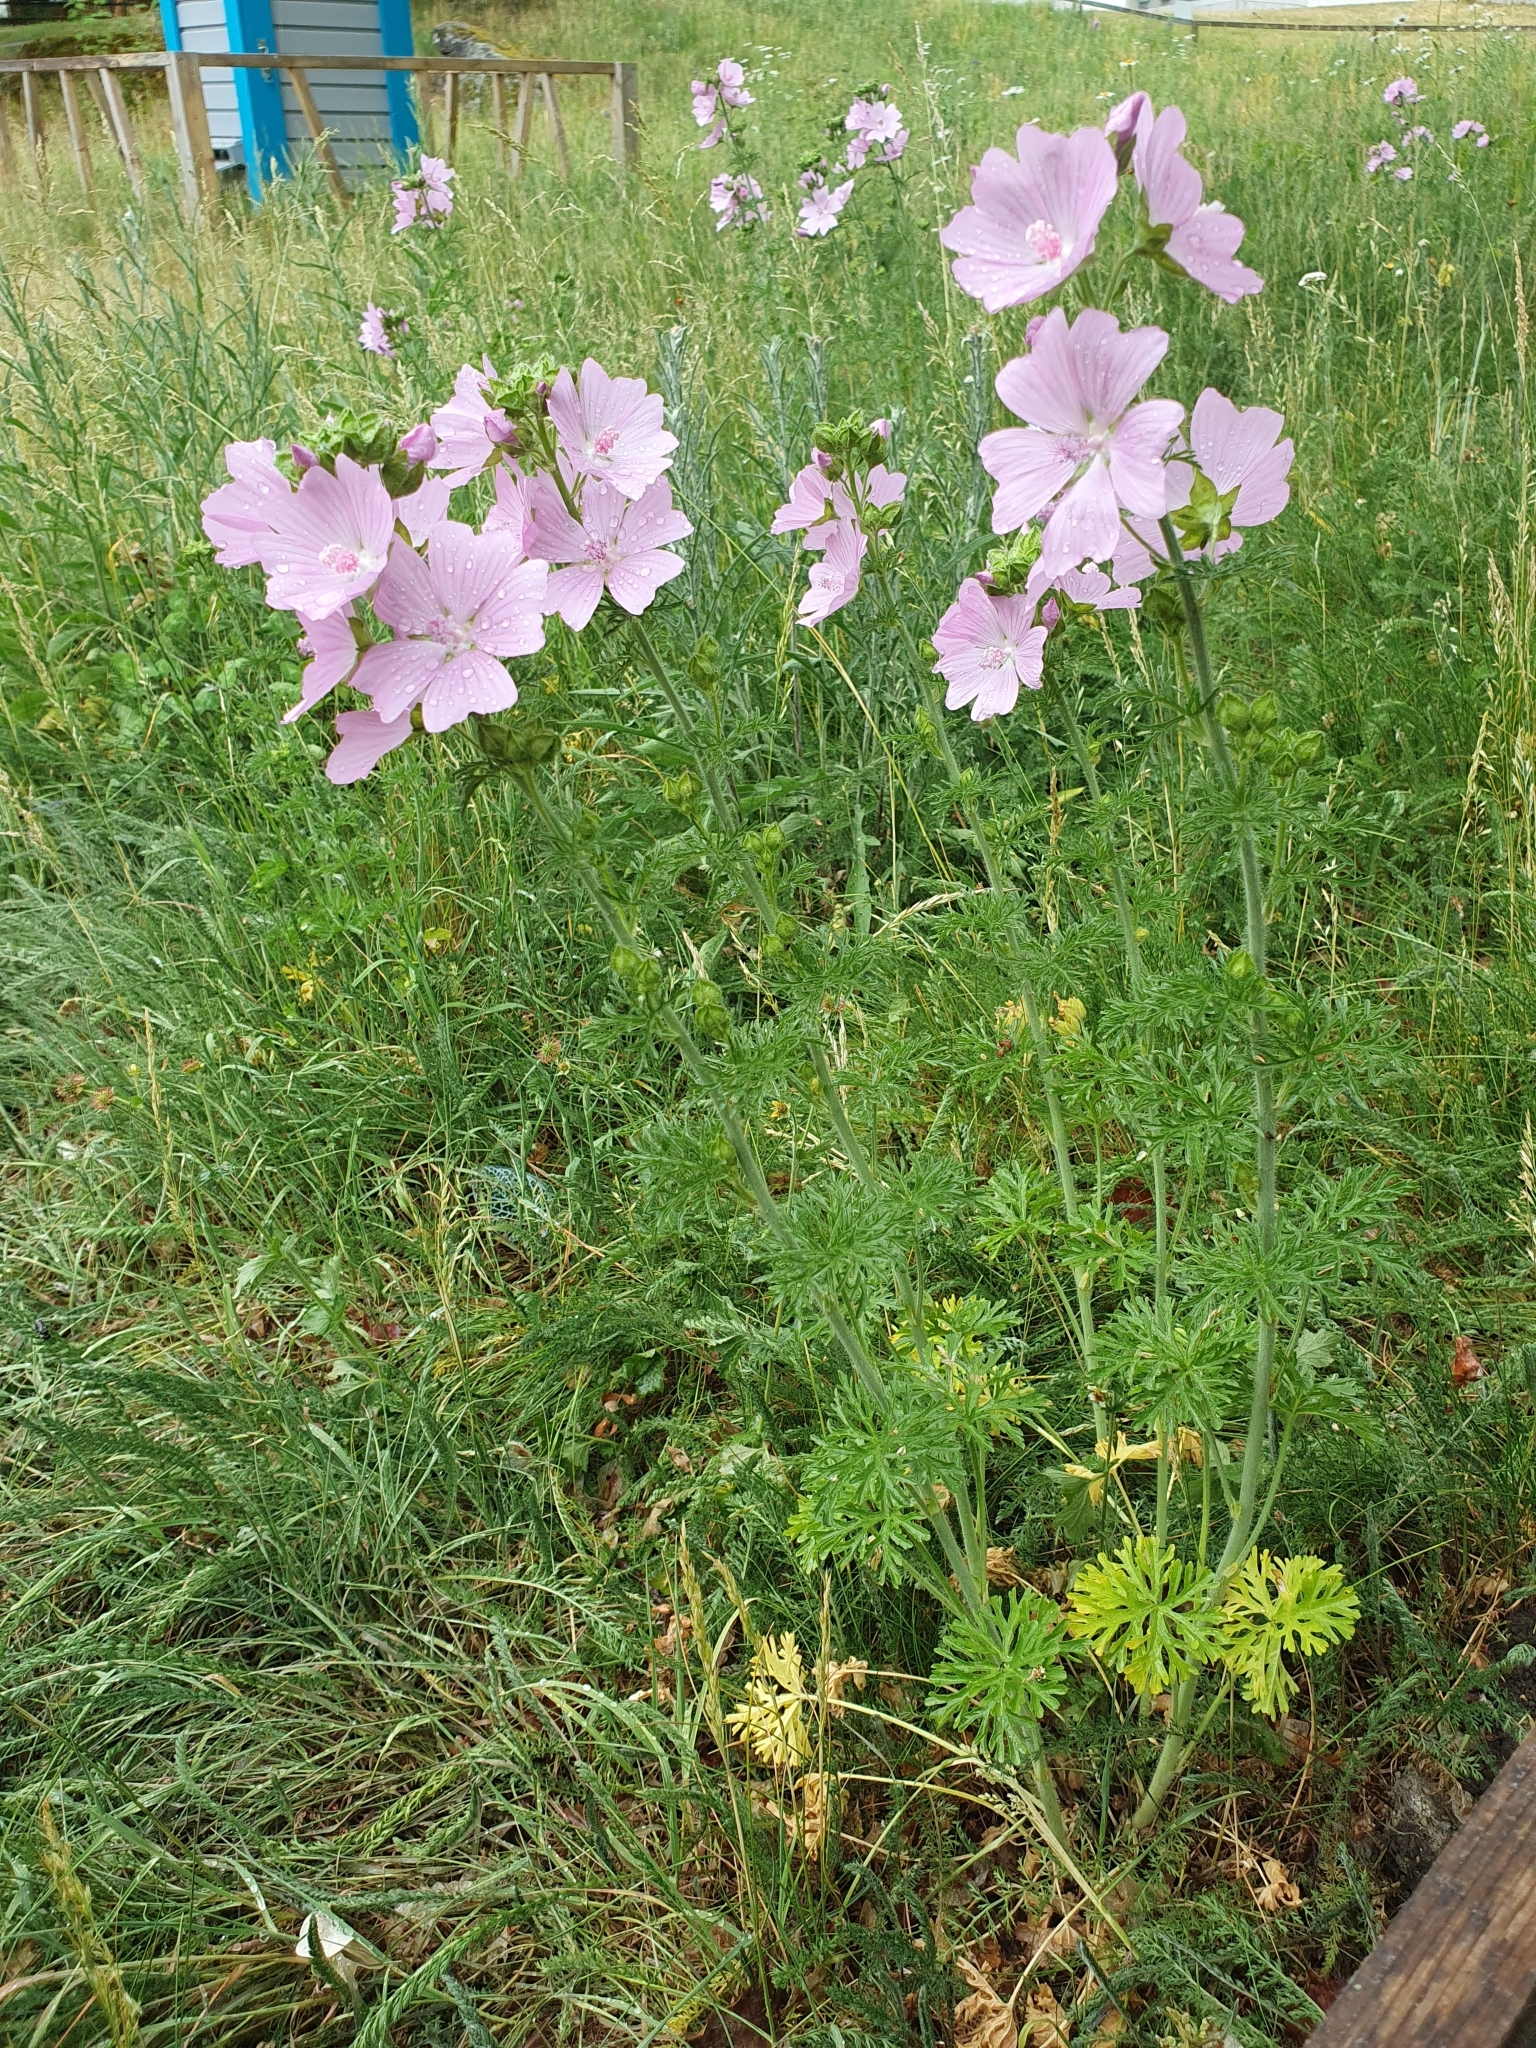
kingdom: Plantae
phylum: Tracheophyta
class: Magnoliopsida
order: Malvales
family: Malvaceae
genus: Malva
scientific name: Malva moschata
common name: Musk mallow
